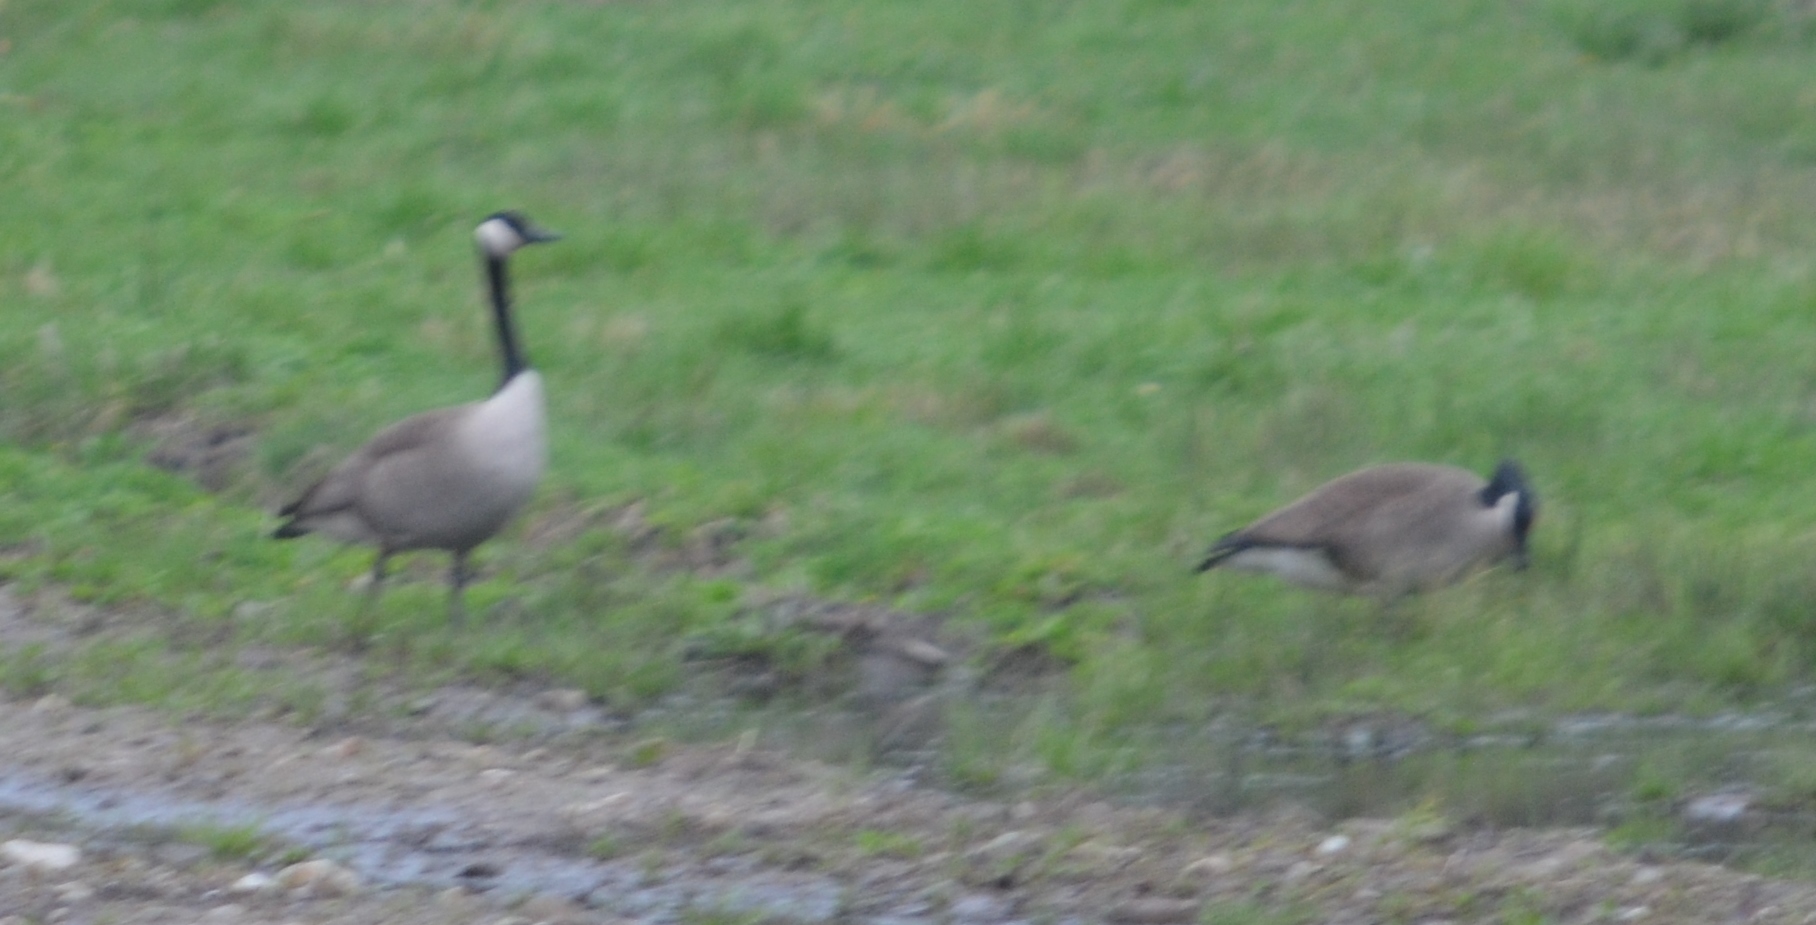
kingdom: Animalia
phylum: Chordata
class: Aves
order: Anseriformes
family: Anatidae
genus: Branta
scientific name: Branta canadensis
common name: Canada goose
